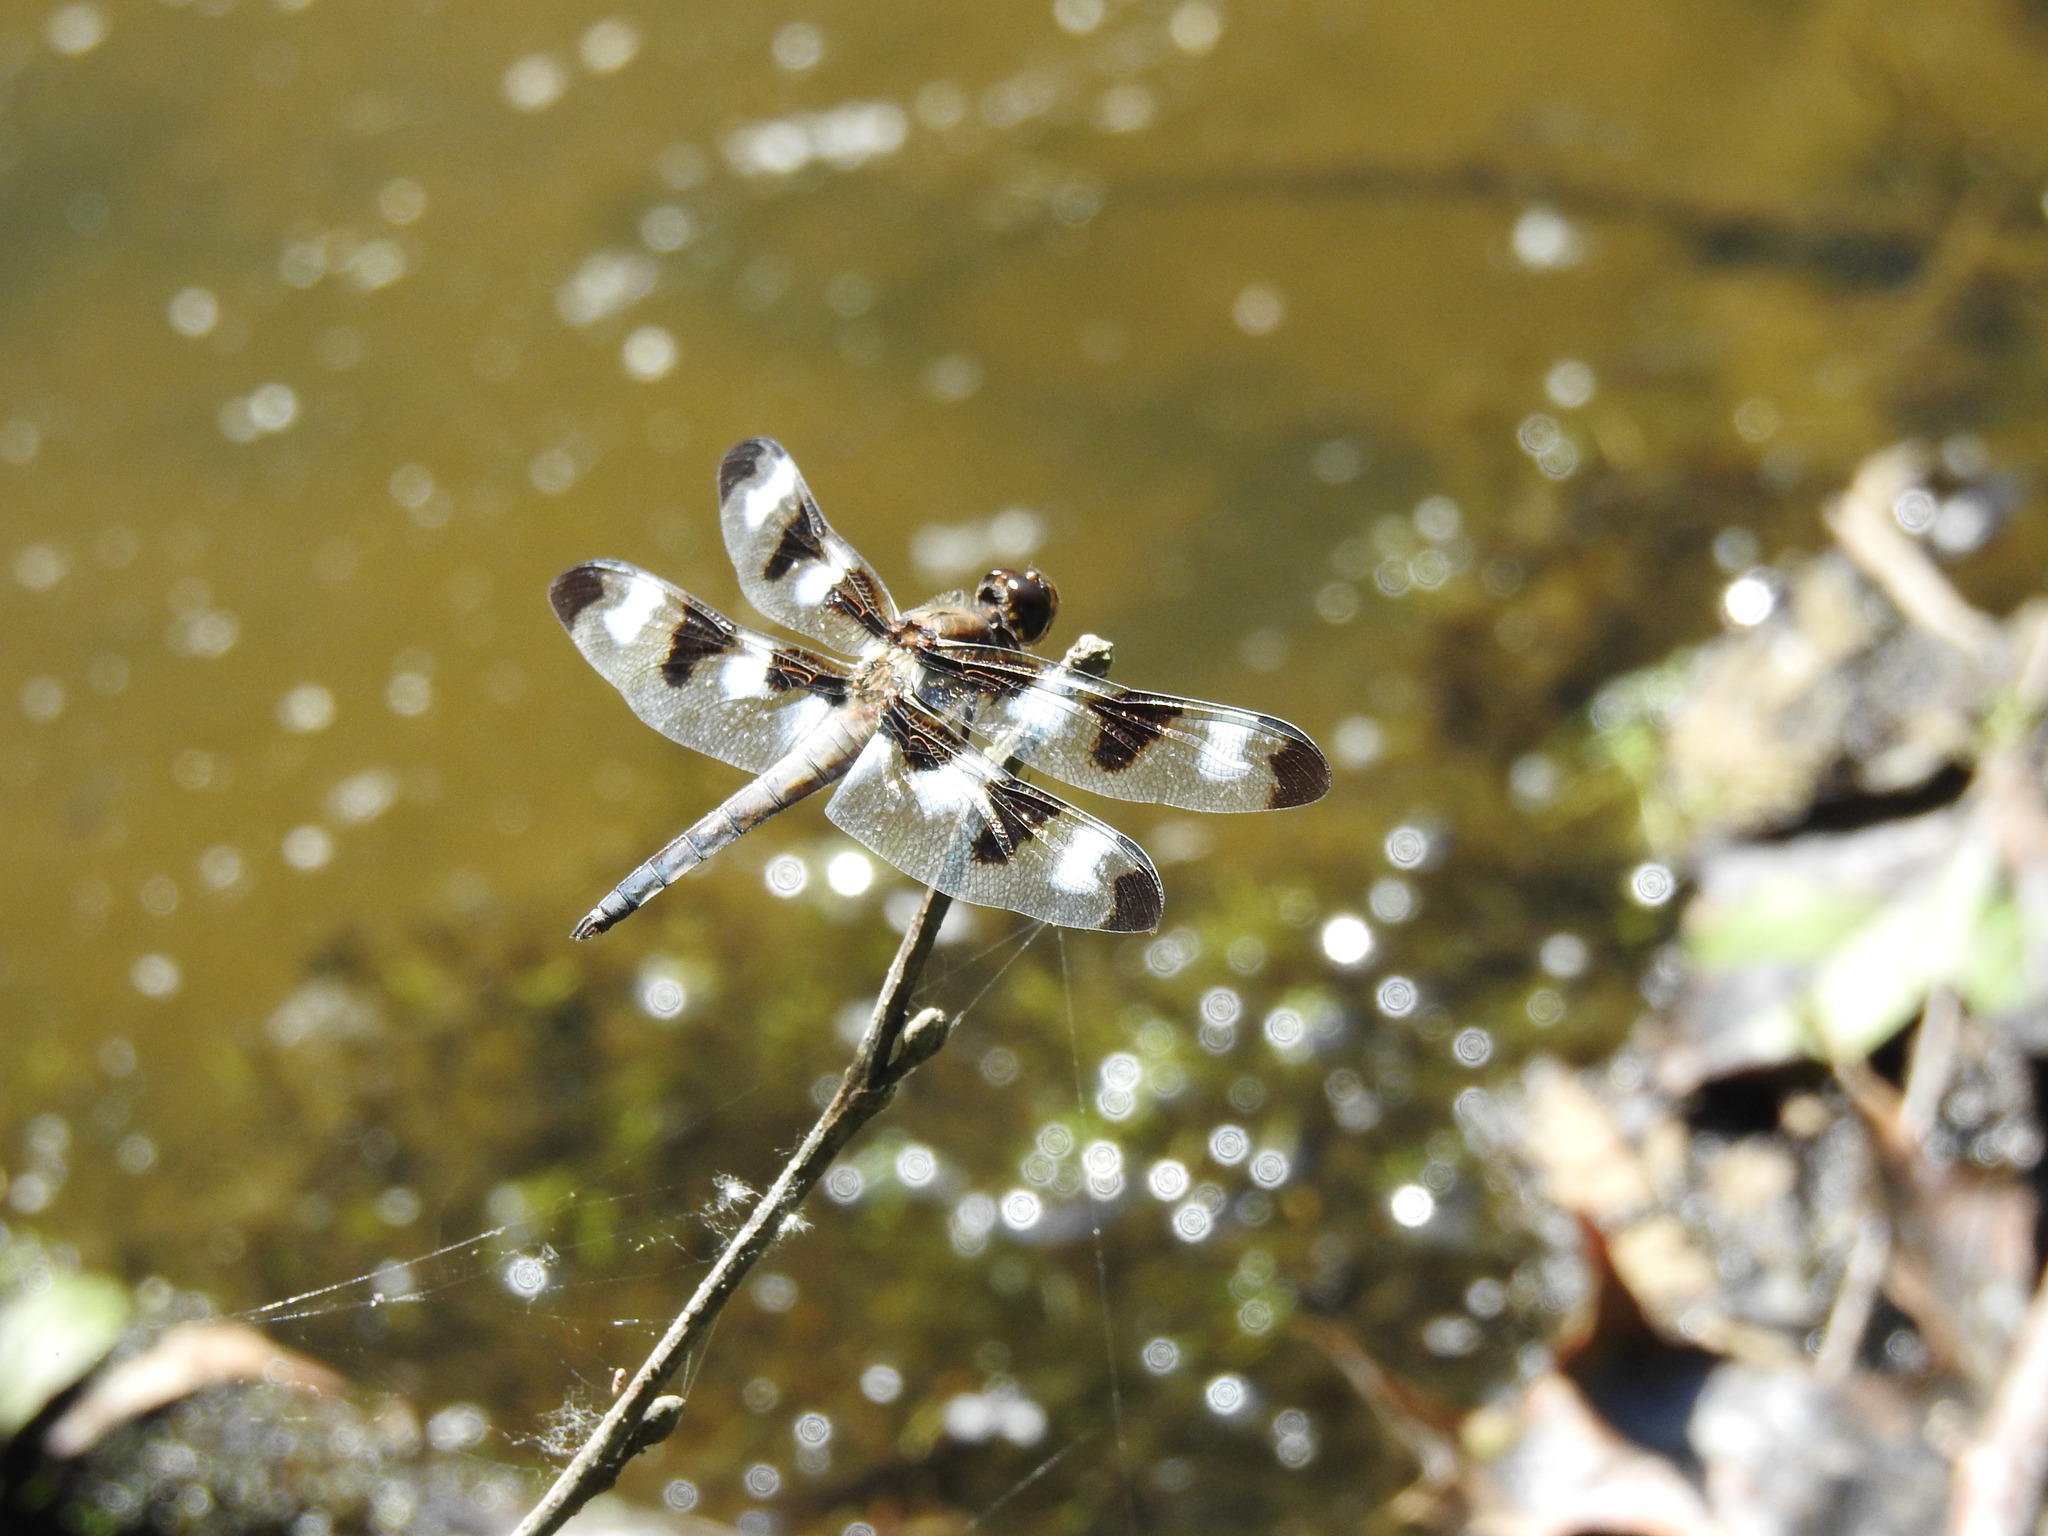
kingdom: Animalia
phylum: Arthropoda
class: Insecta
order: Odonata
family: Libellulidae
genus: Libellula
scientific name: Libellula pulchella
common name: Twelve-spotted skimmer
